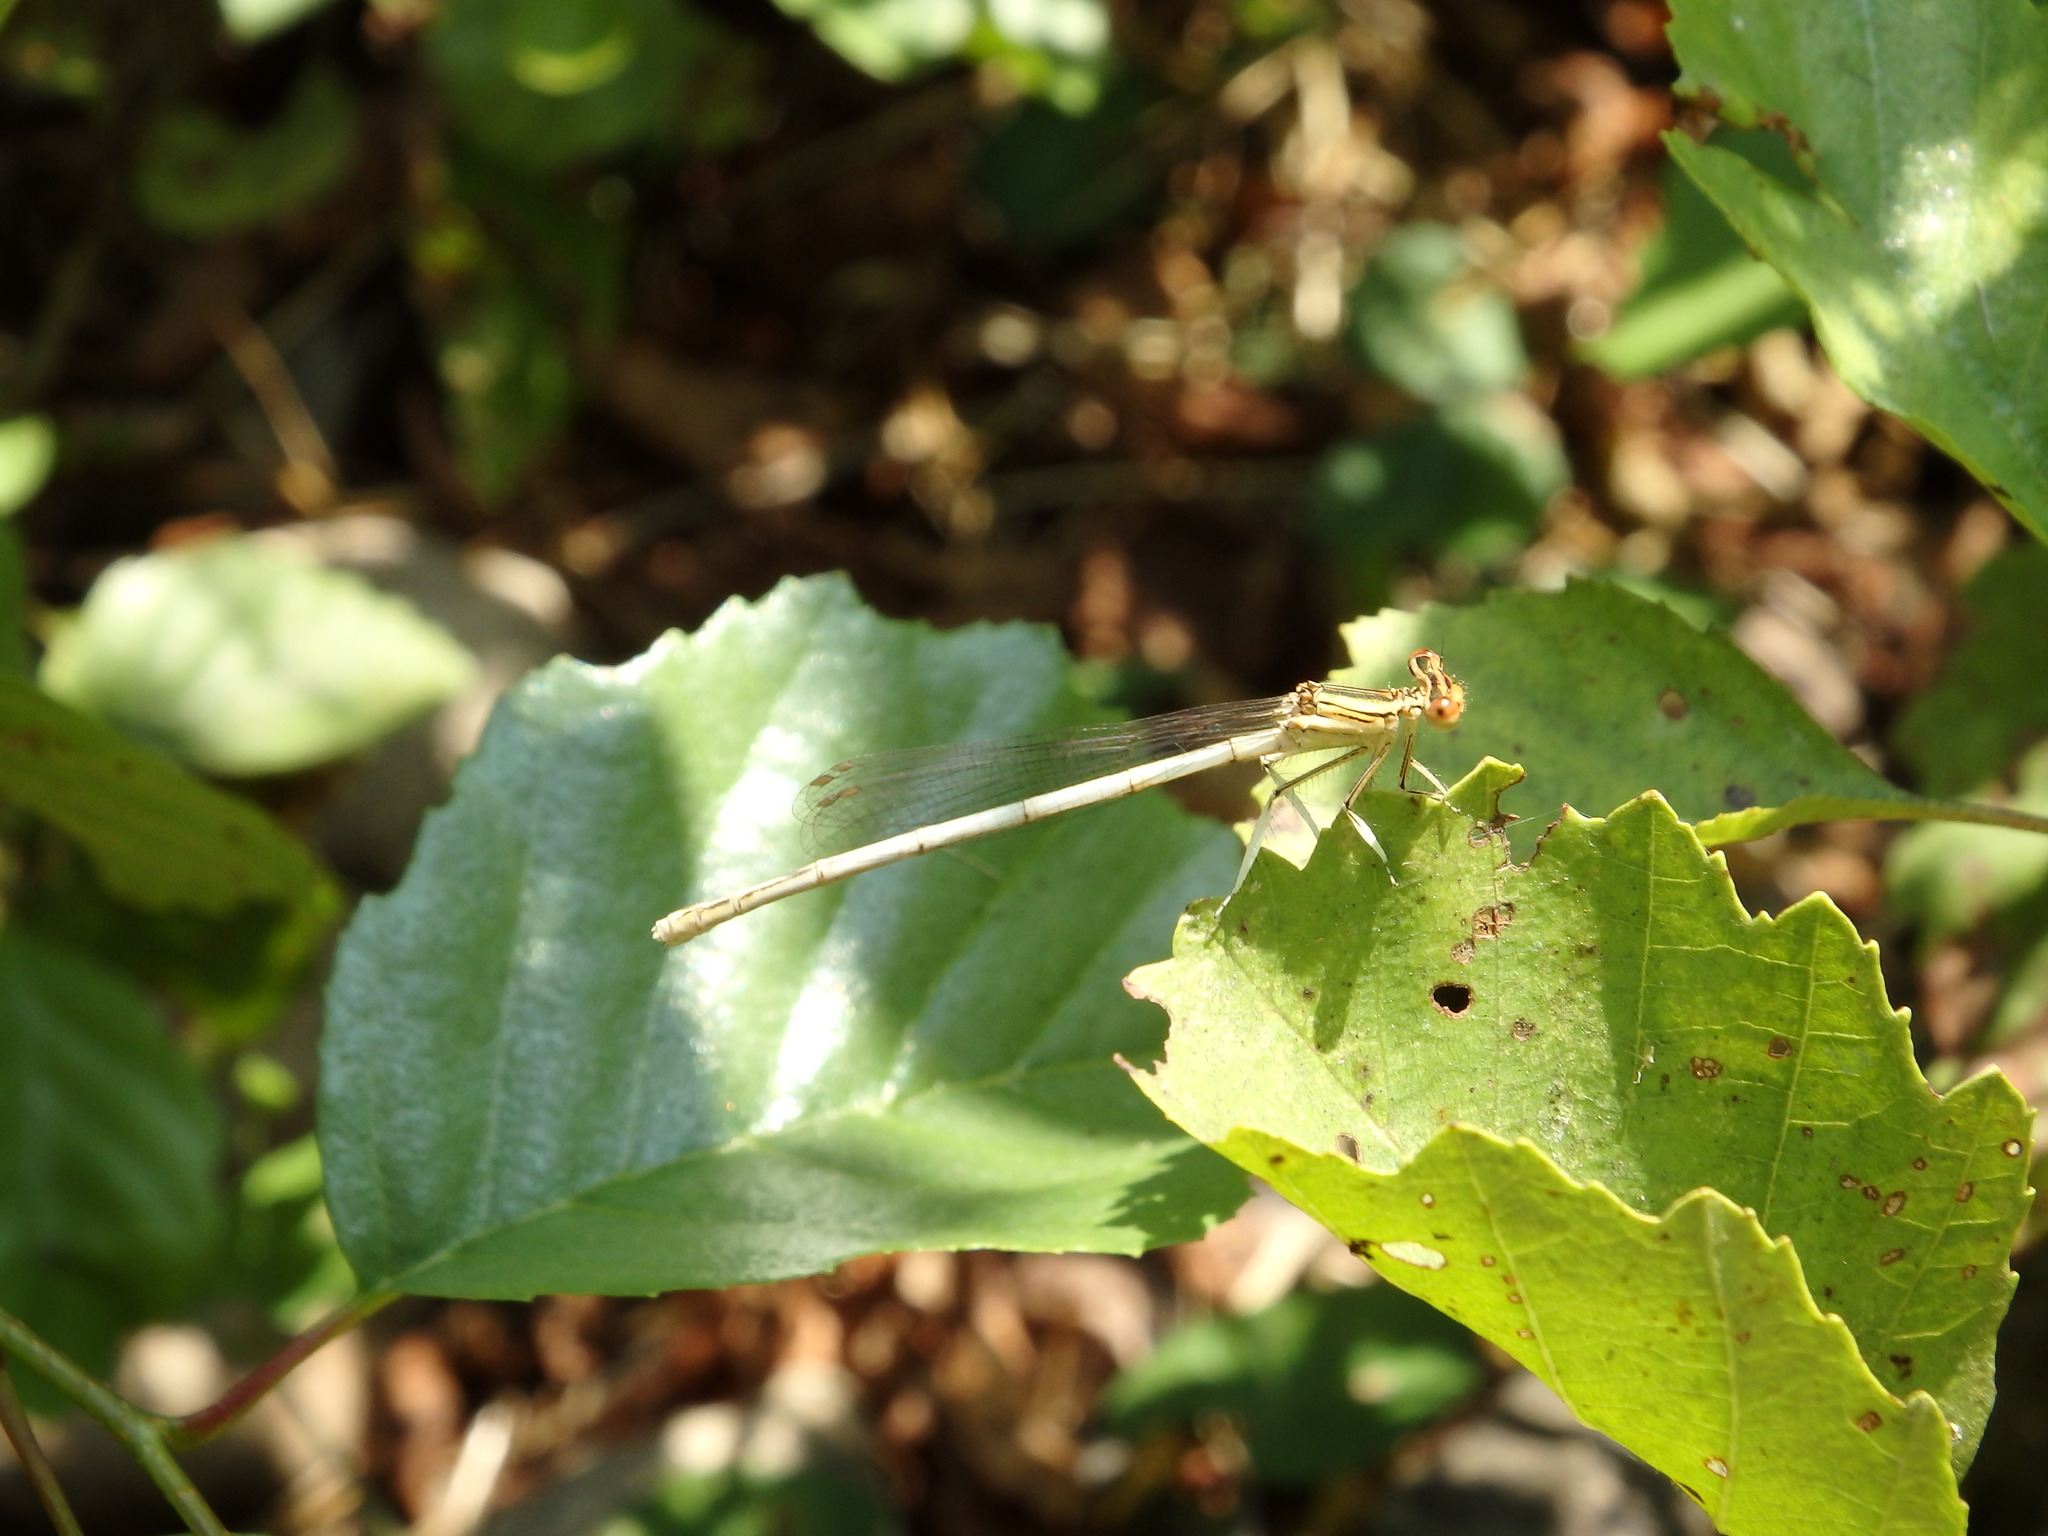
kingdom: Animalia
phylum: Arthropoda
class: Insecta
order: Odonata
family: Platycnemididae
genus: Platycnemis
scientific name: Platycnemis latipes
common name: White featherleg
